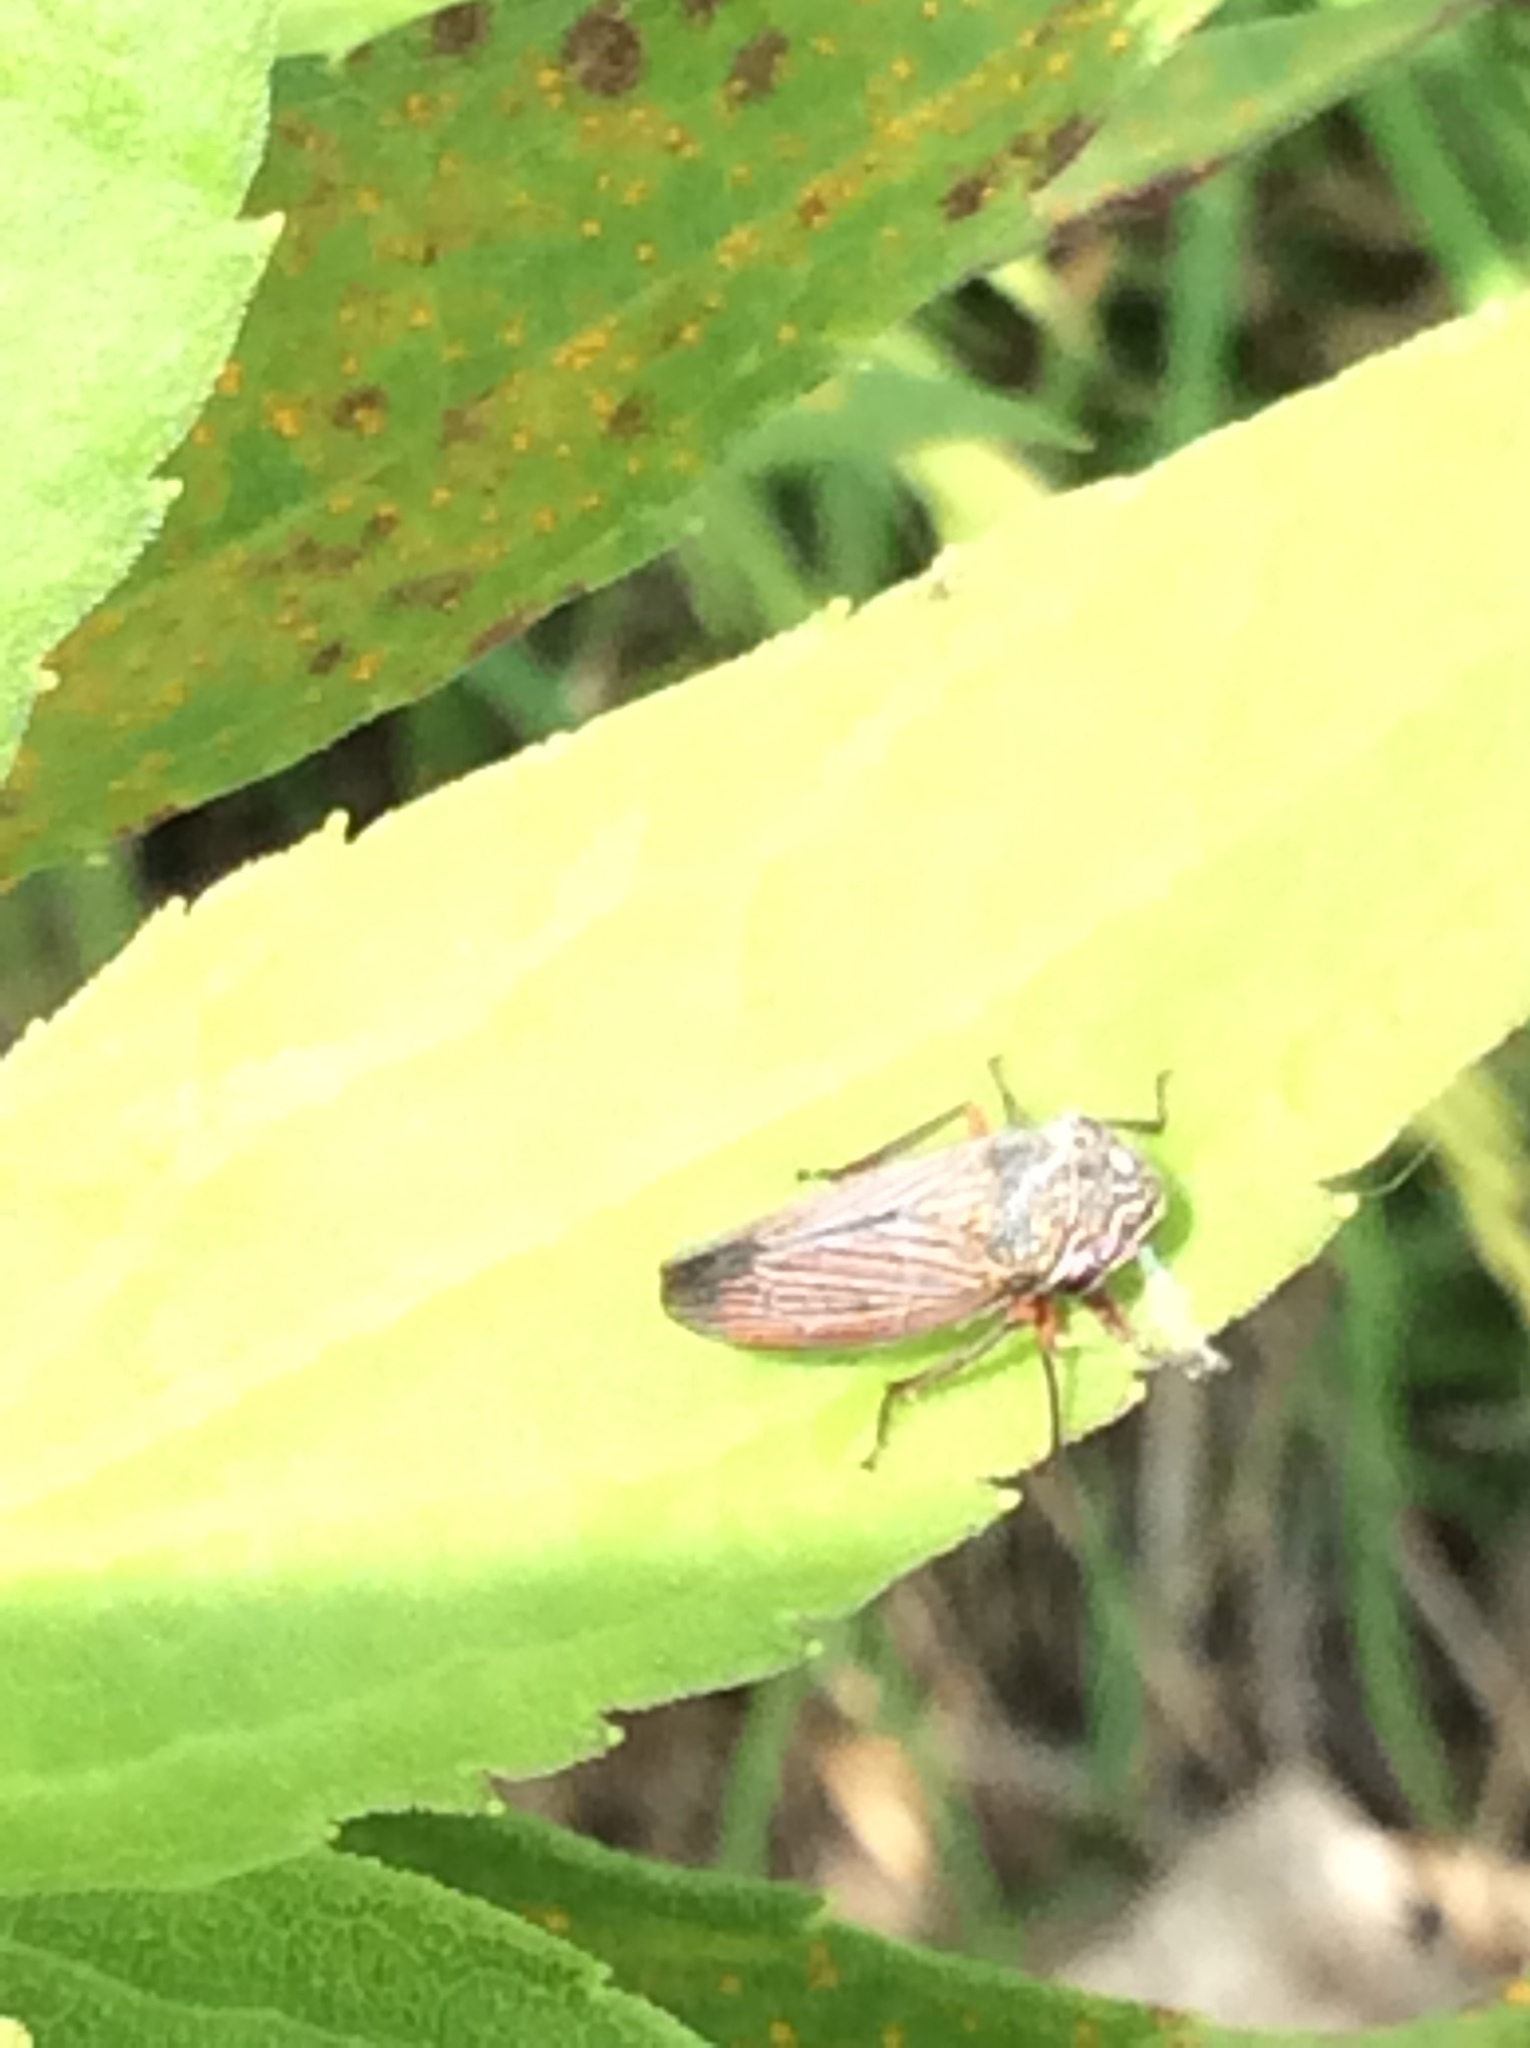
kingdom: Animalia
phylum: Arthropoda
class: Insecta
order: Hemiptera
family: Cicadellidae
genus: Cuerna
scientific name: Cuerna costalis
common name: Lateral-lined sharpshooter
